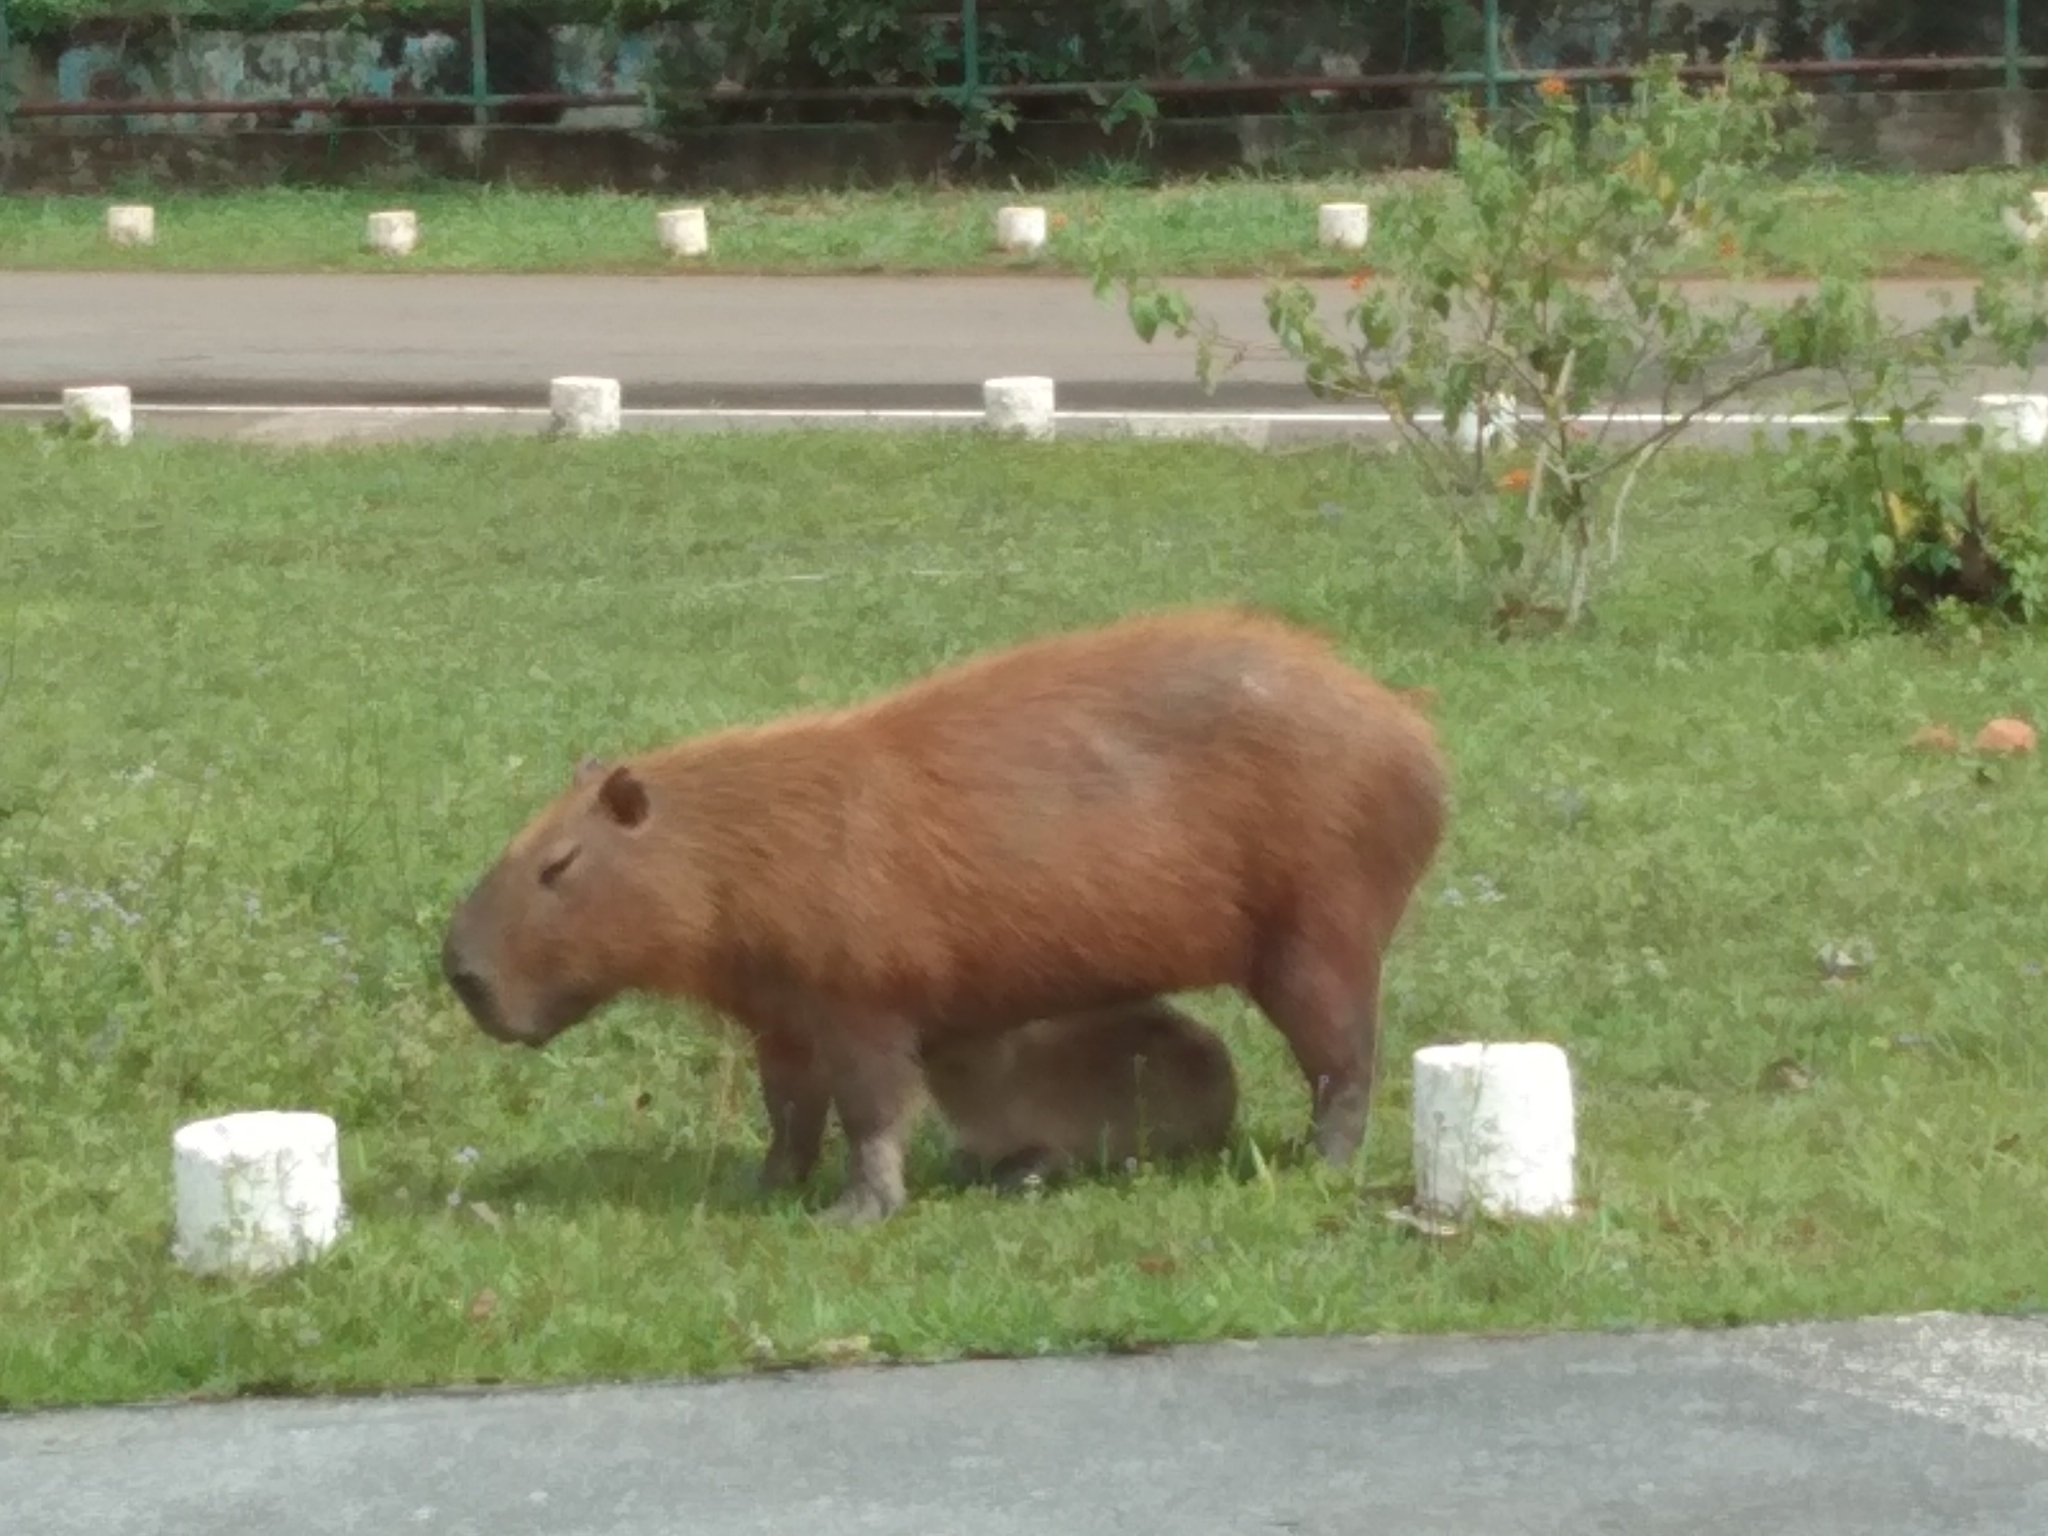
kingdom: Animalia
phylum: Chordata
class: Mammalia
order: Rodentia
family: Caviidae
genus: Hydrochoerus
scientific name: Hydrochoerus hydrochaeris
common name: Capybara
